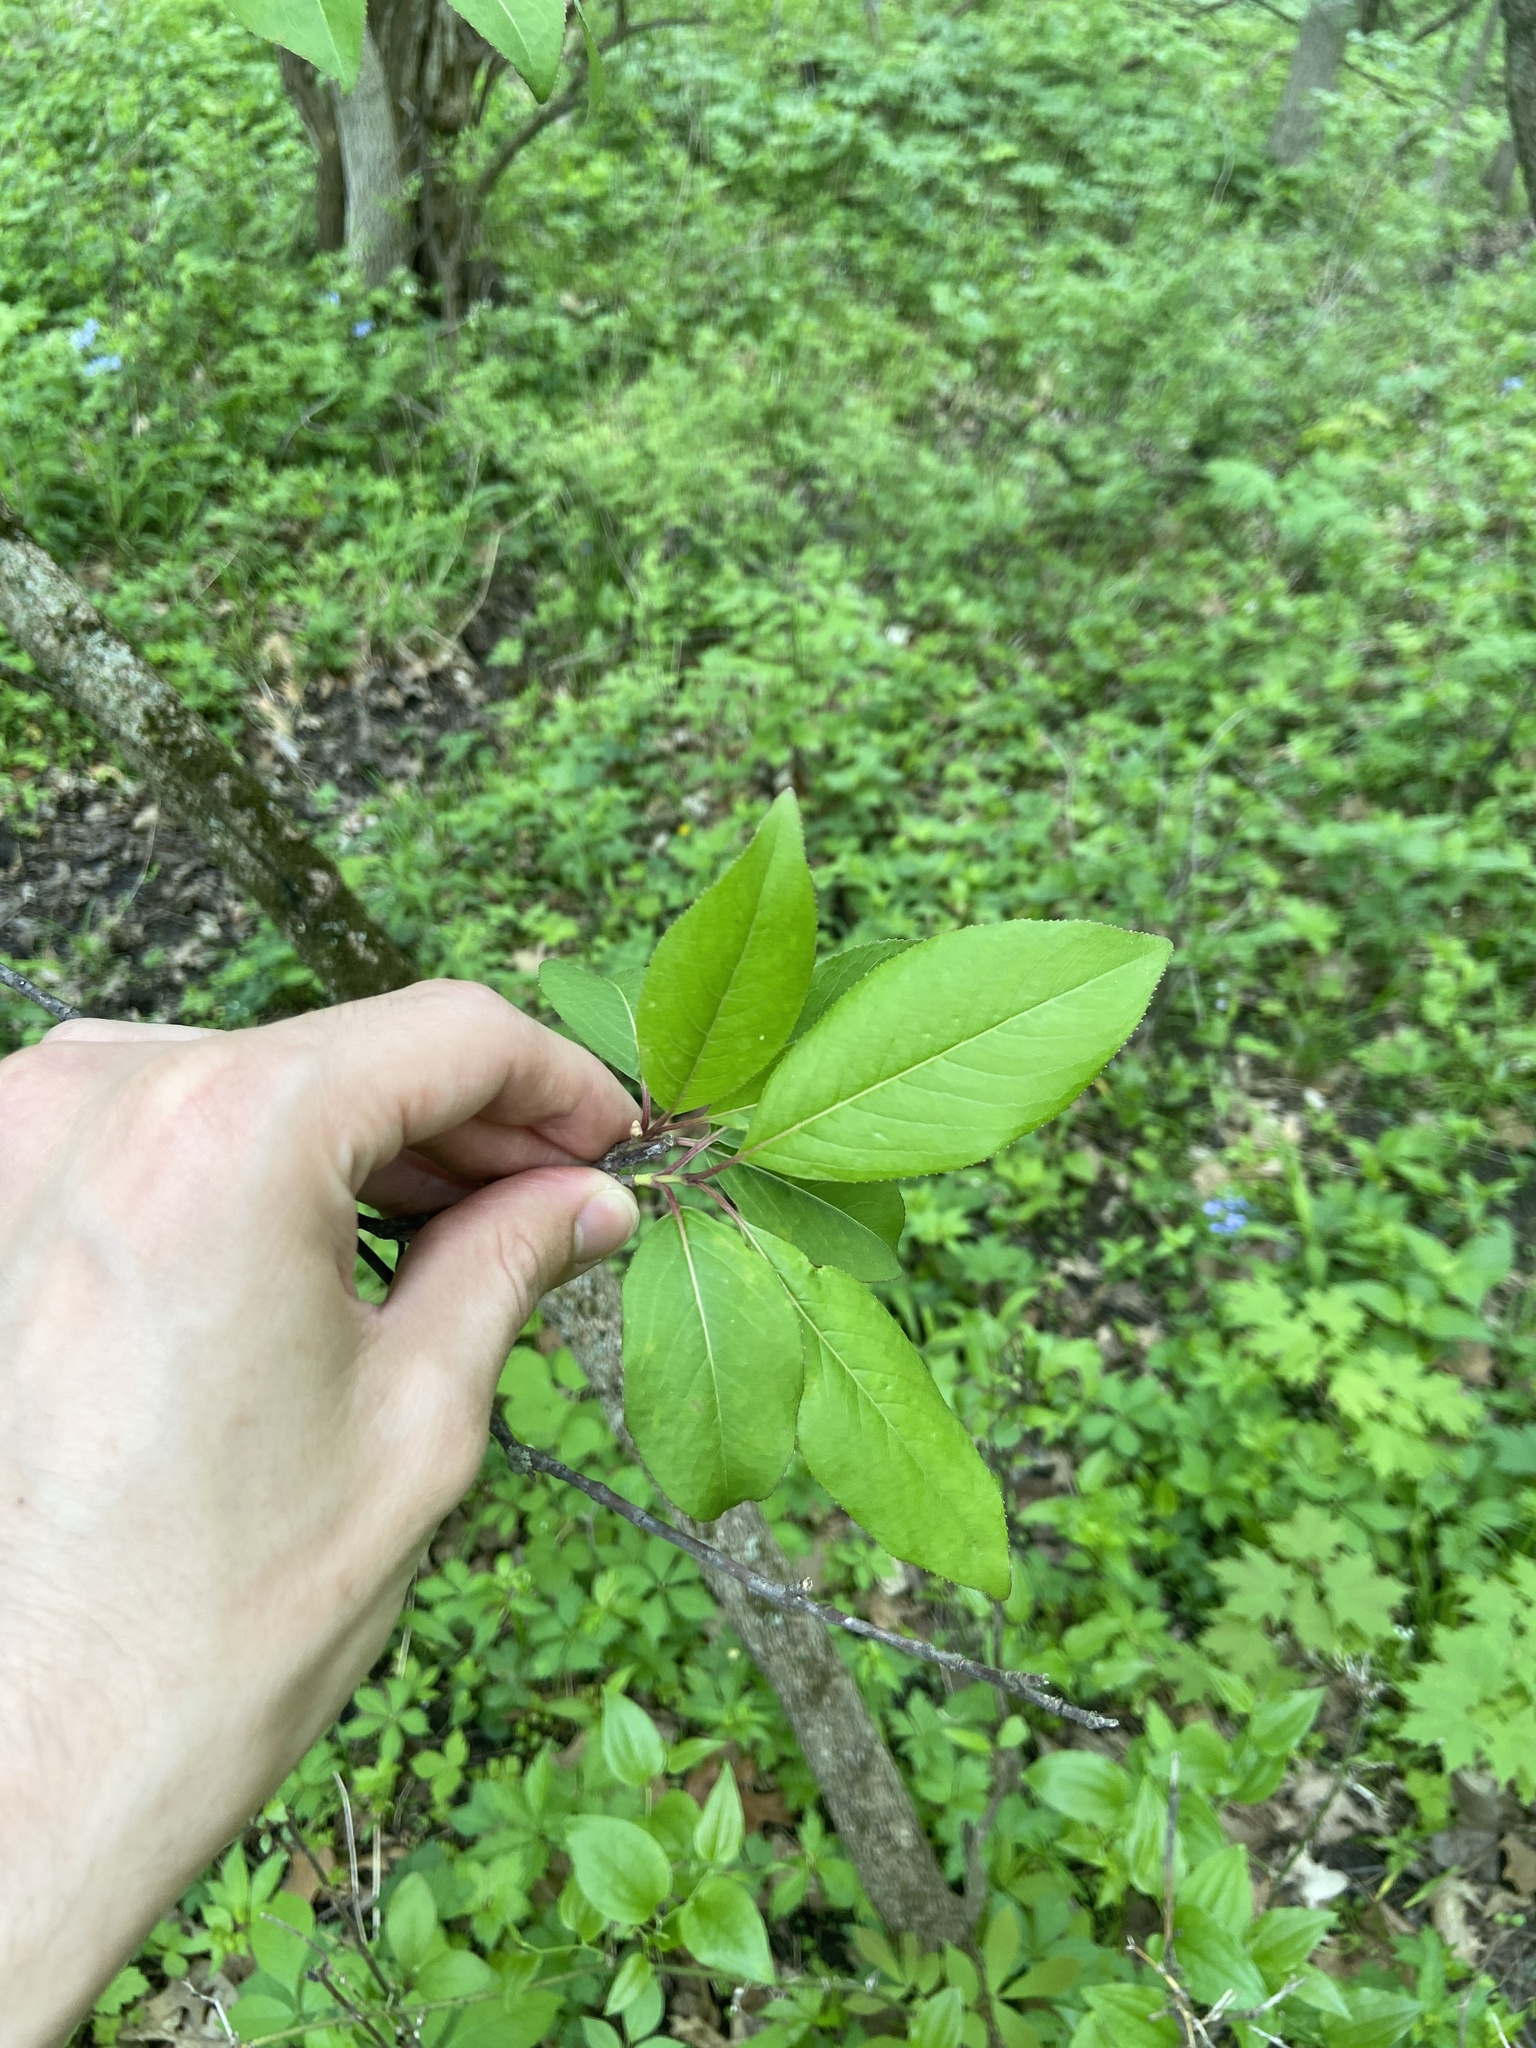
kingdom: Plantae
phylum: Tracheophyta
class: Magnoliopsida
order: Dipsacales
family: Viburnaceae
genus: Viburnum
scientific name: Viburnum prunifolium
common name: Black haw
